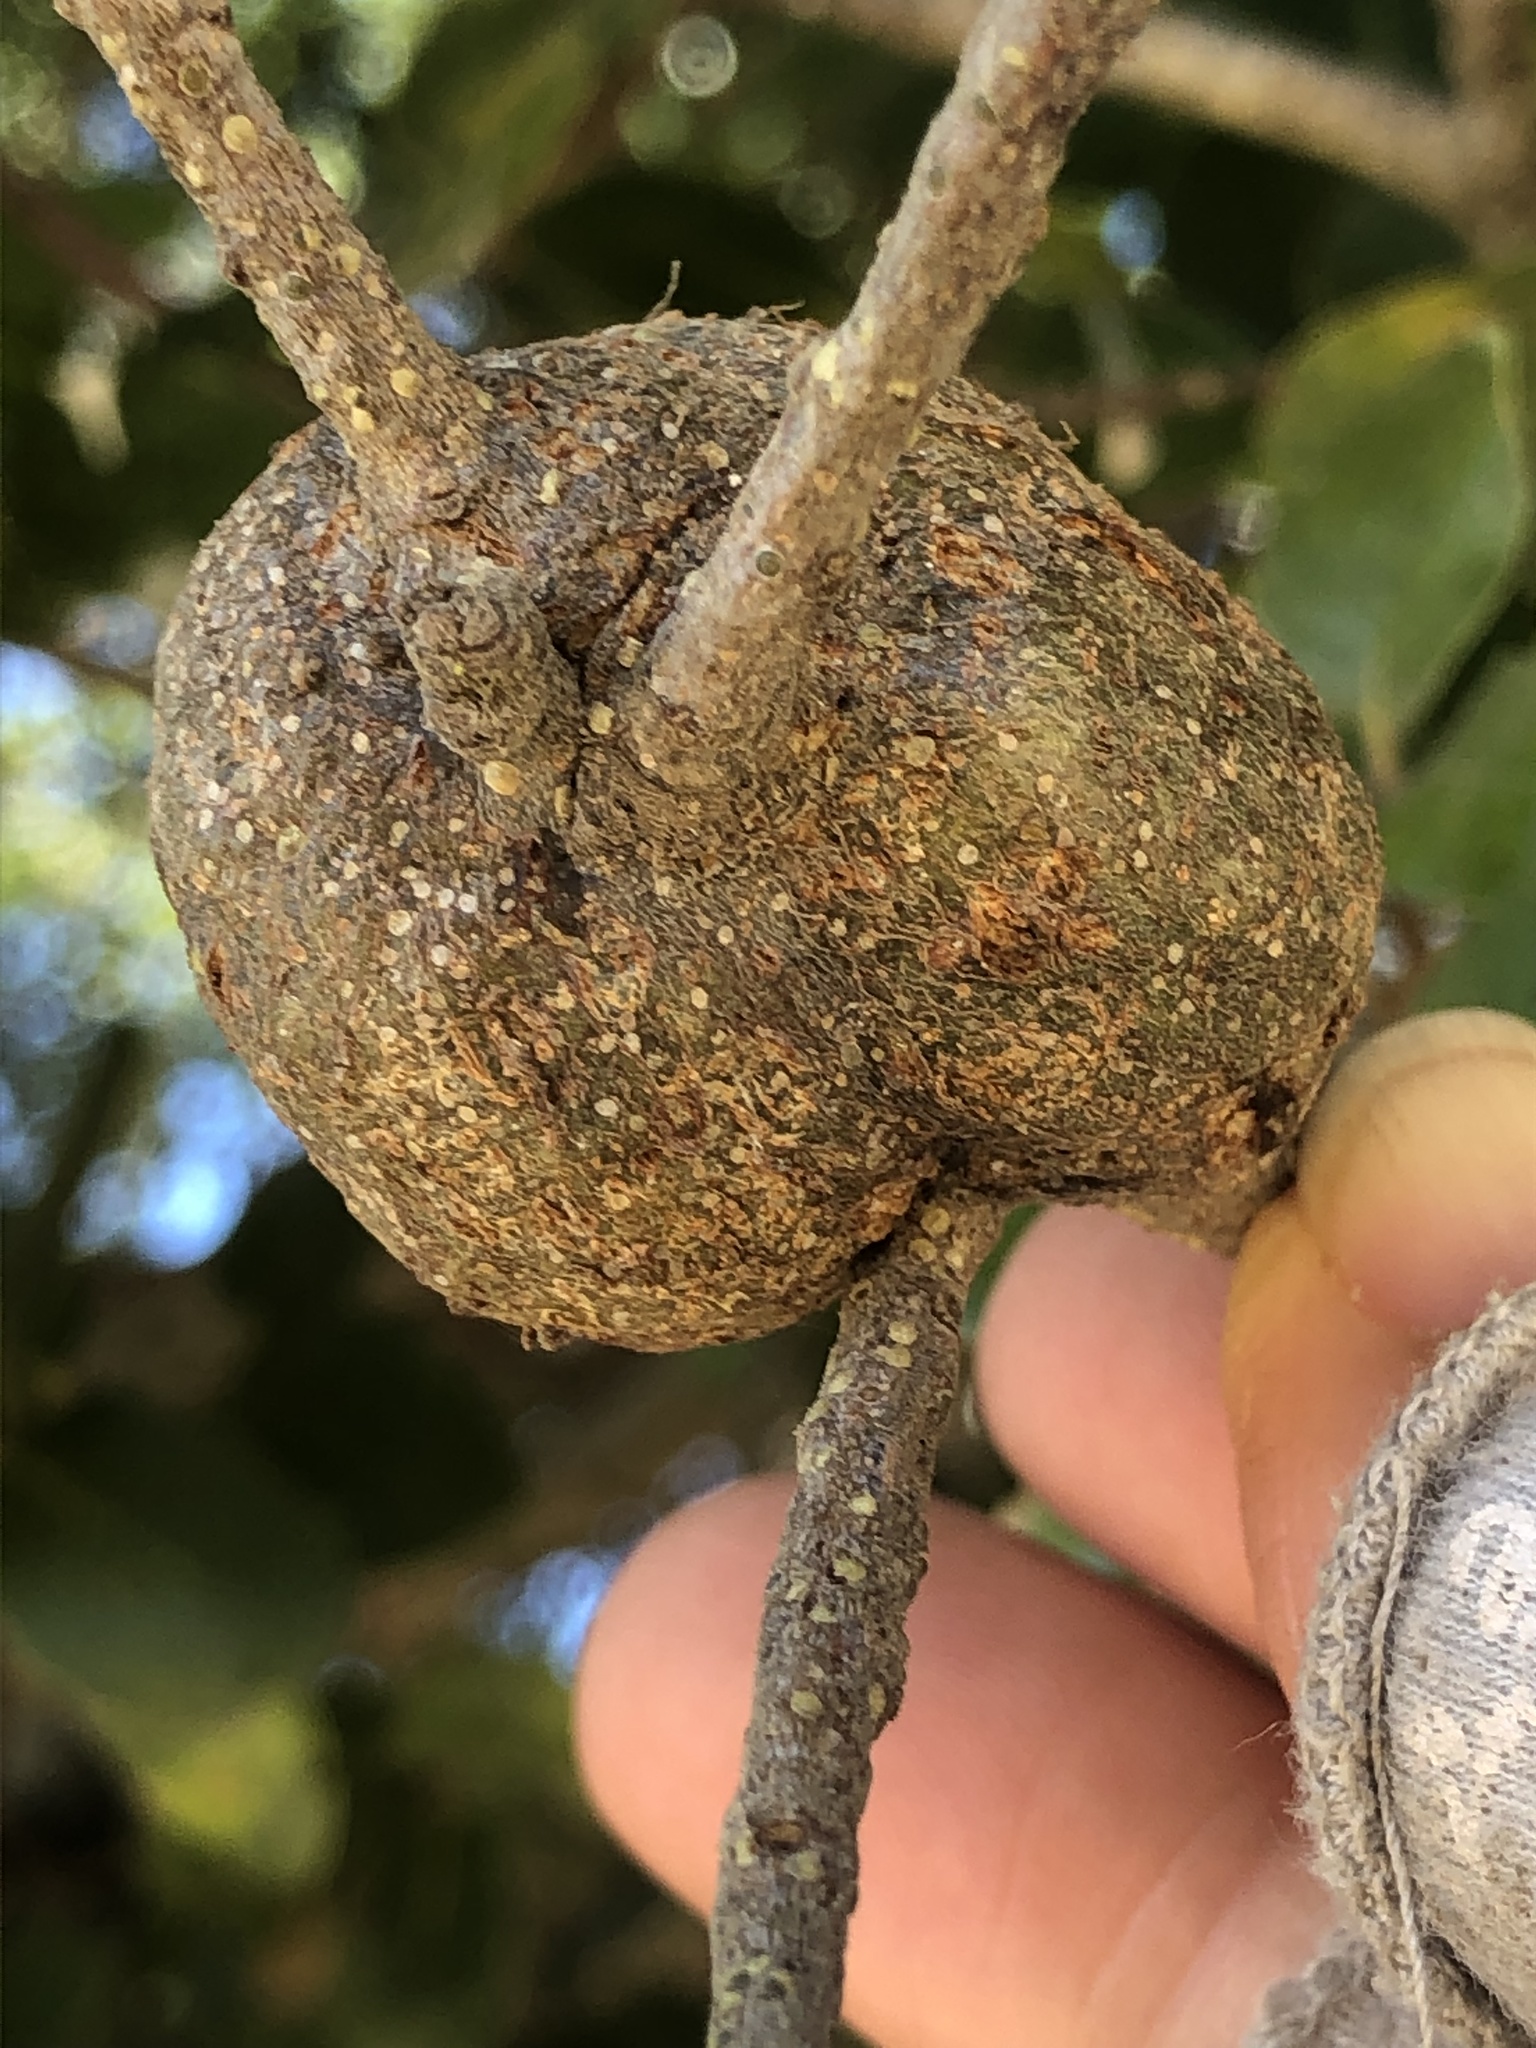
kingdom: Animalia
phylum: Arthropoda
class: Insecta
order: Hymenoptera
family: Cynipidae
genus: Callirhytis
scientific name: Callirhytis
